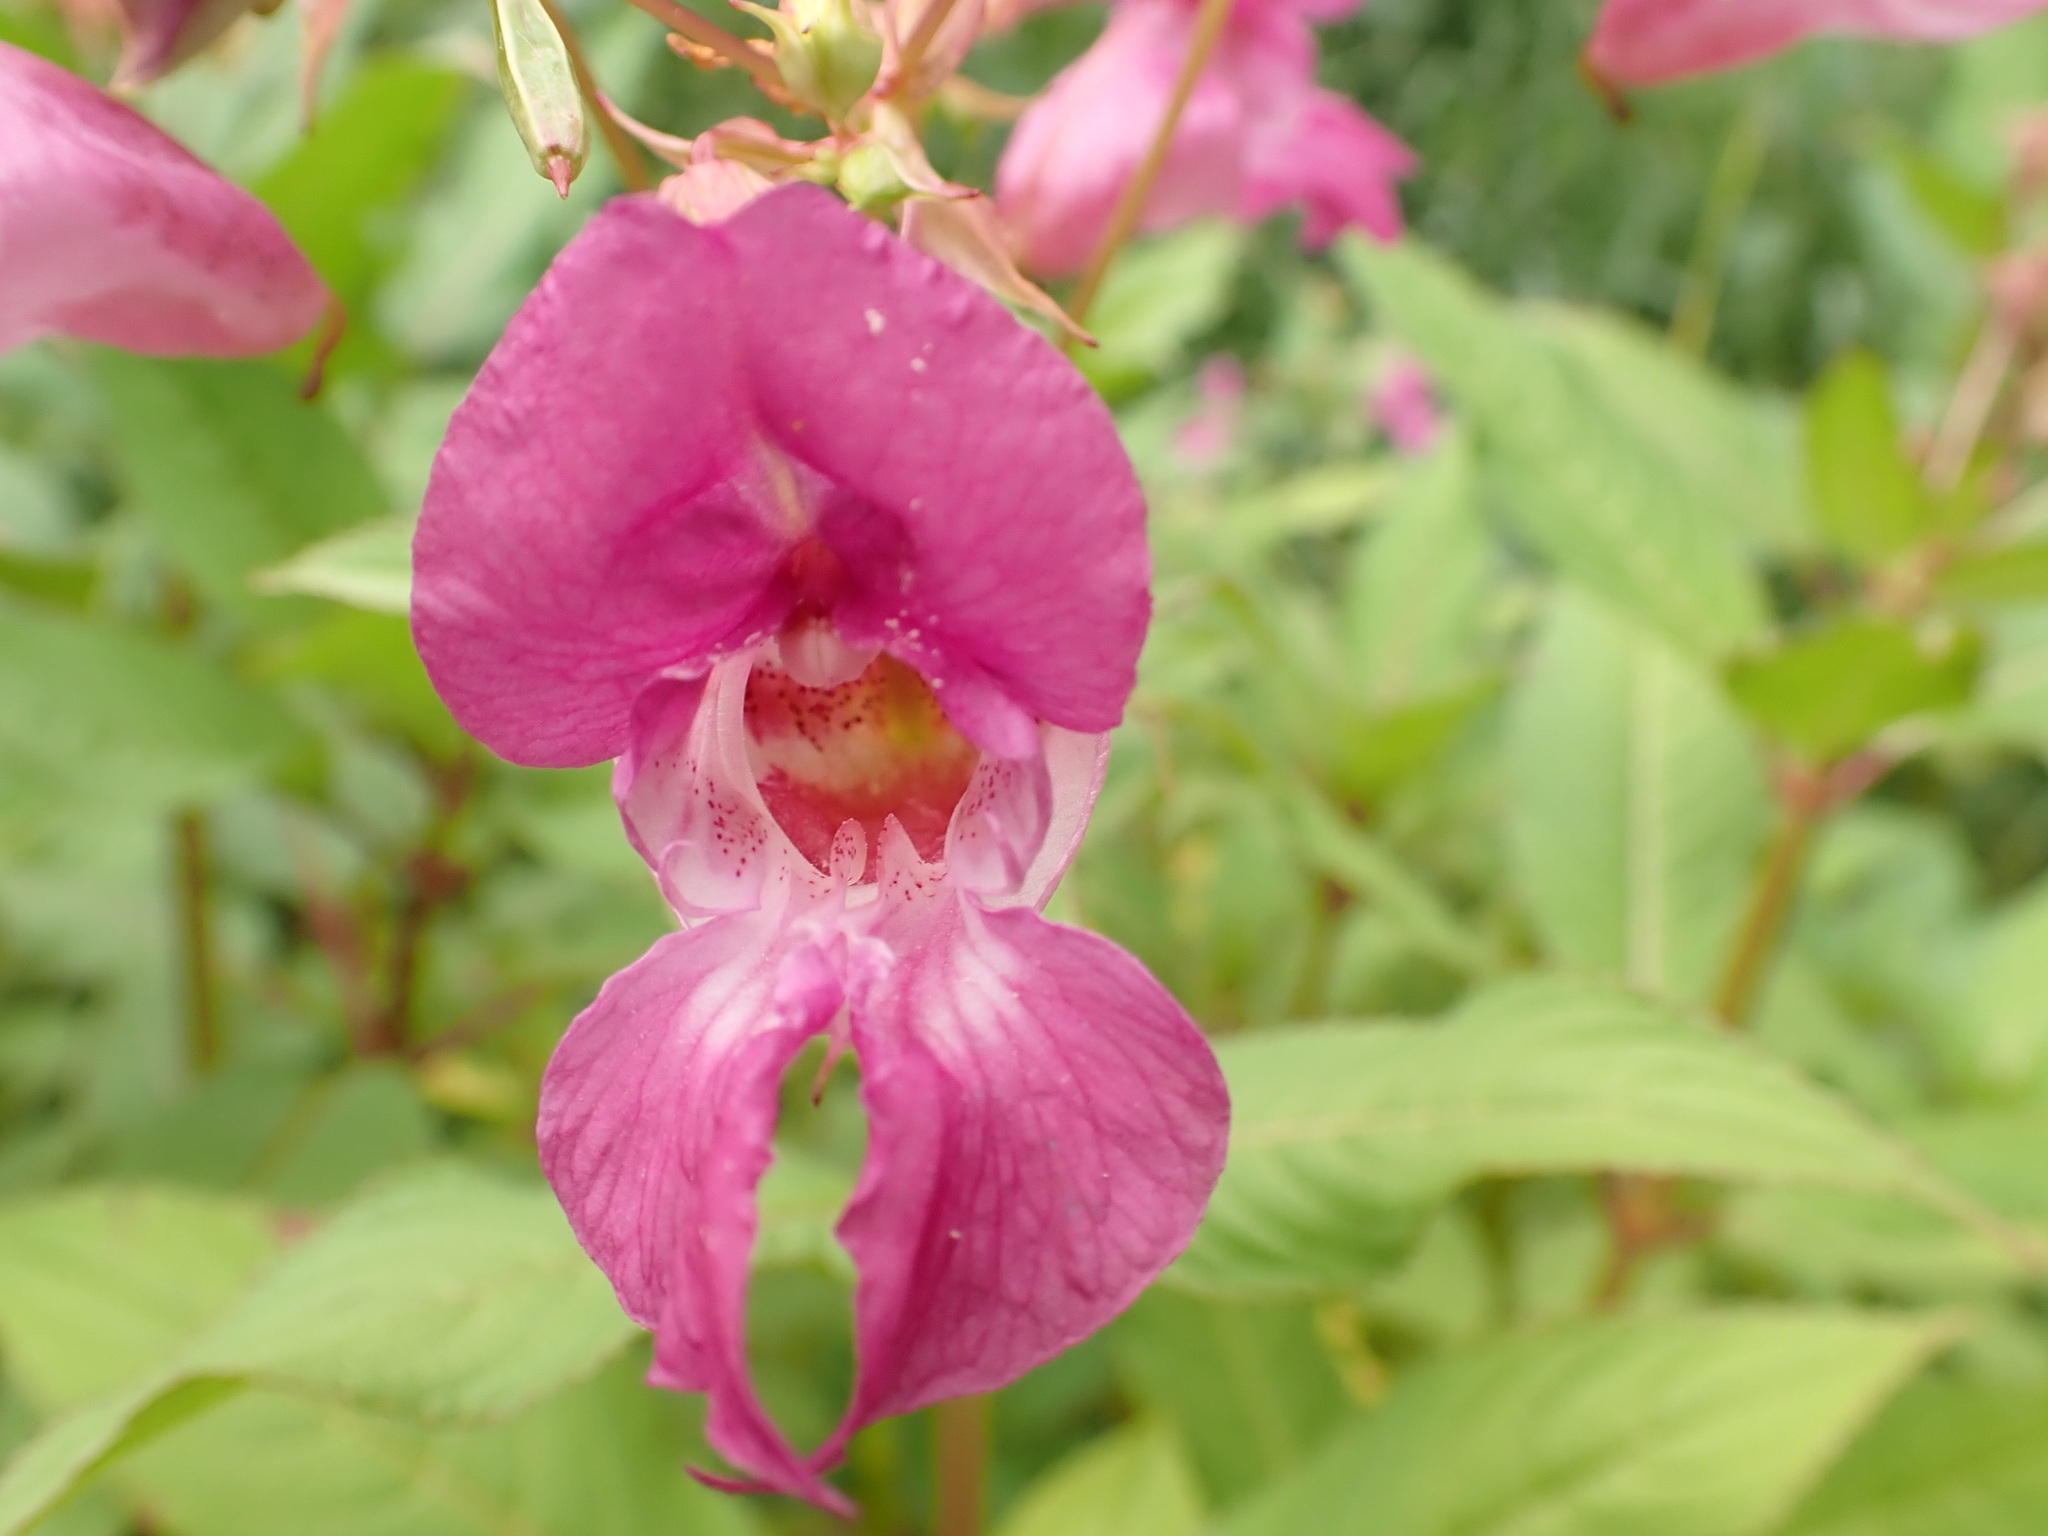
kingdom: Plantae
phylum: Tracheophyta
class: Magnoliopsida
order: Ericales
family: Balsaminaceae
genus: Impatiens
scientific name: Impatiens glandulifera
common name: Himalayan balsam
